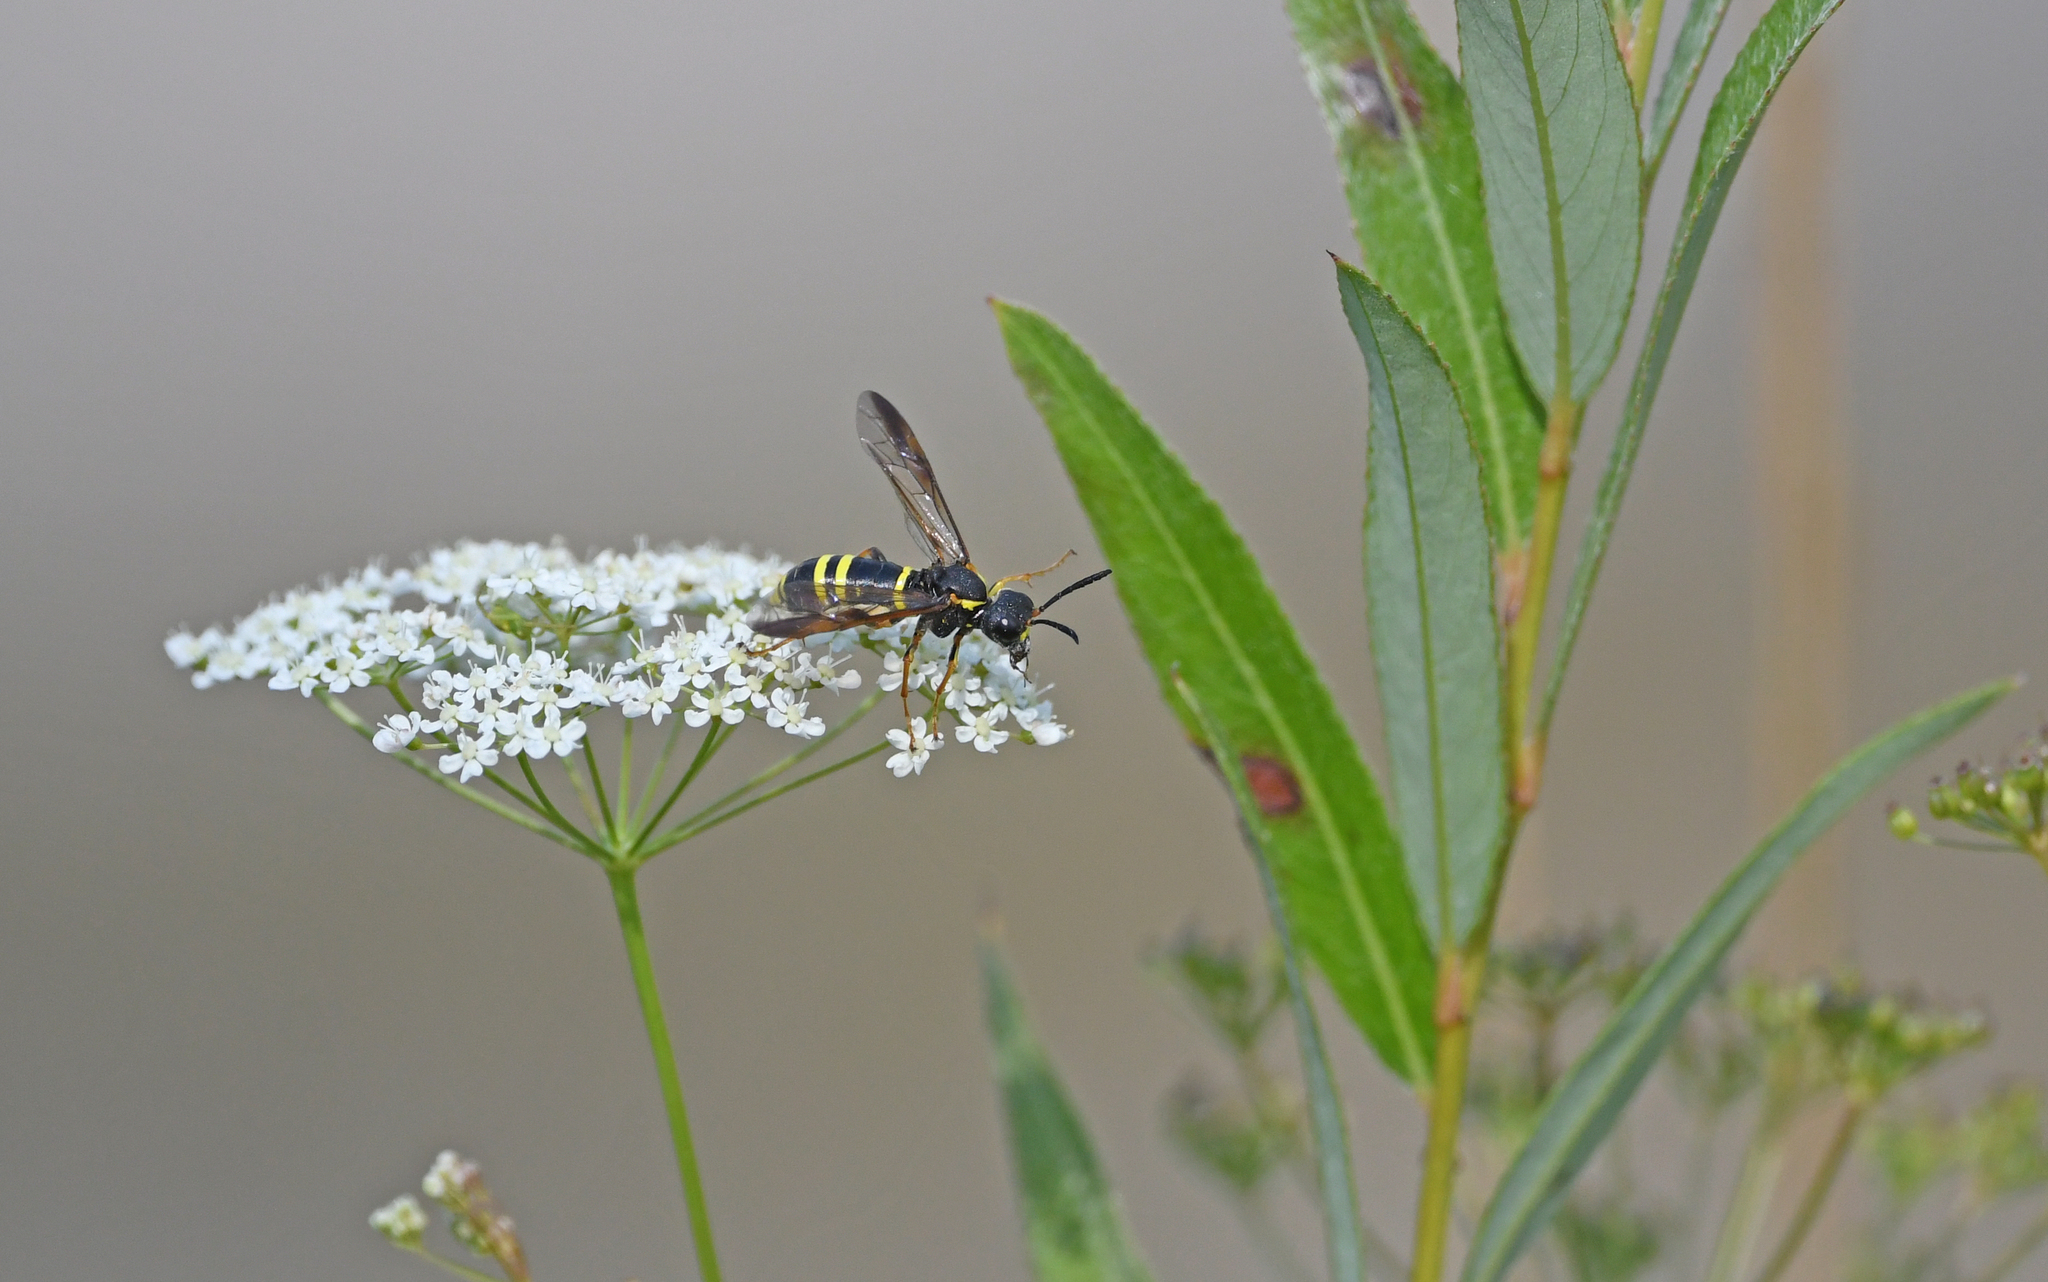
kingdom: Animalia
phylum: Arthropoda
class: Insecta
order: Hymenoptera
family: Tenthredinidae
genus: Tenthredo
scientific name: Tenthredo vespa
